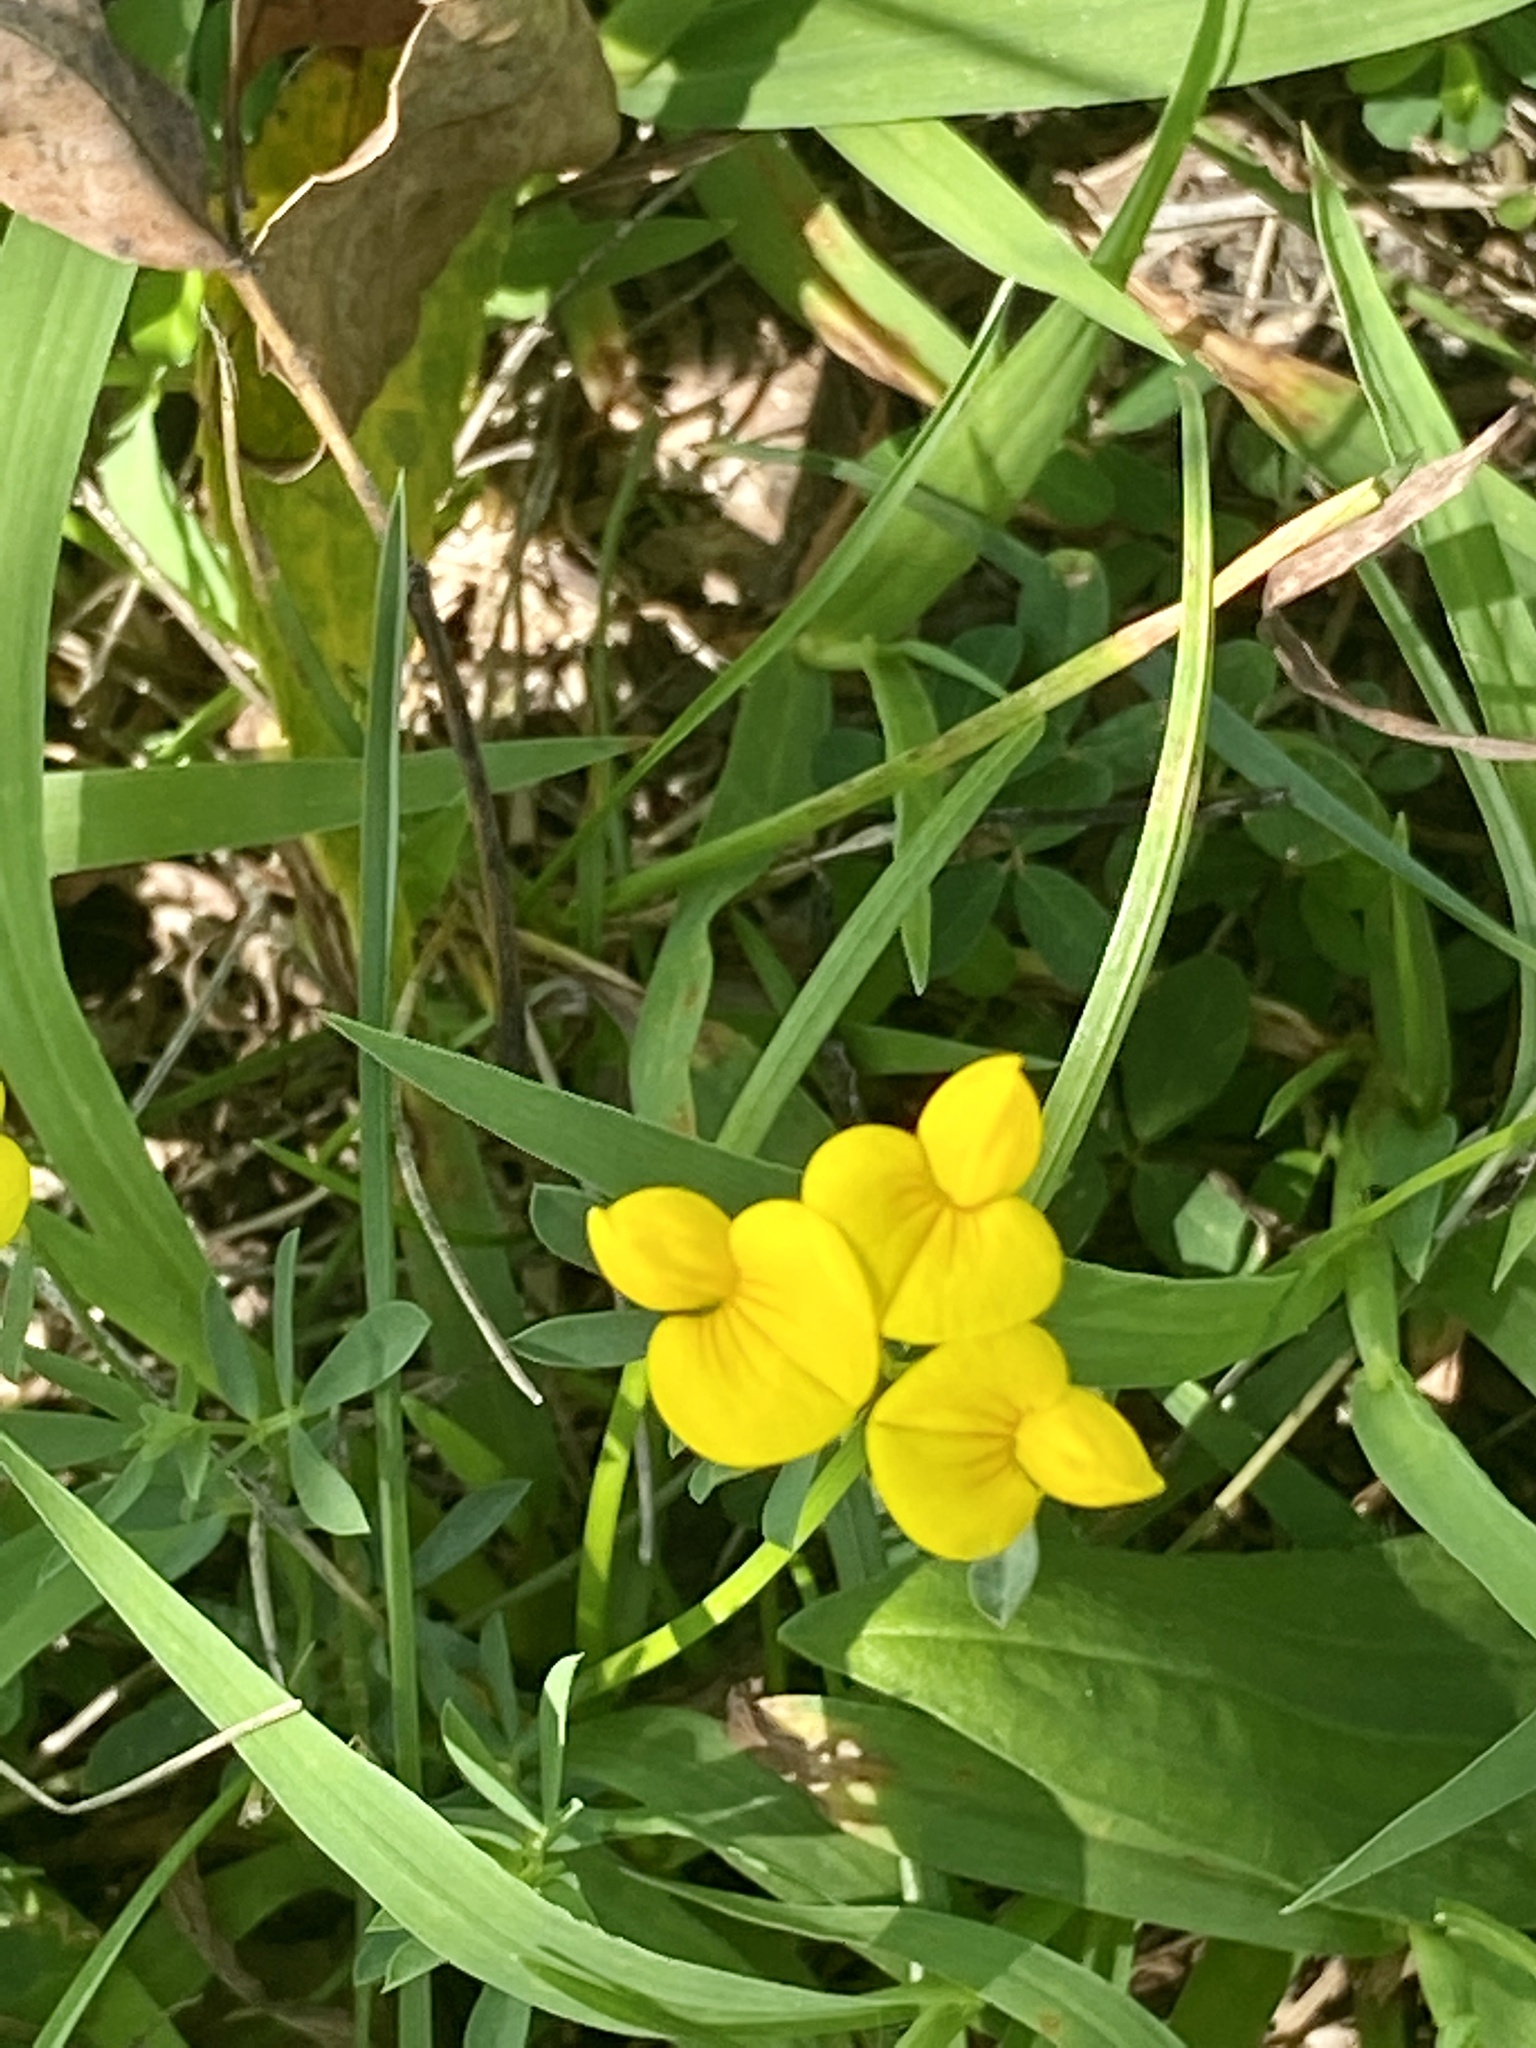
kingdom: Plantae
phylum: Tracheophyta
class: Magnoliopsida
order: Fabales
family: Fabaceae
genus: Lotus
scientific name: Lotus corniculatus
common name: Common bird's-foot-trefoil
